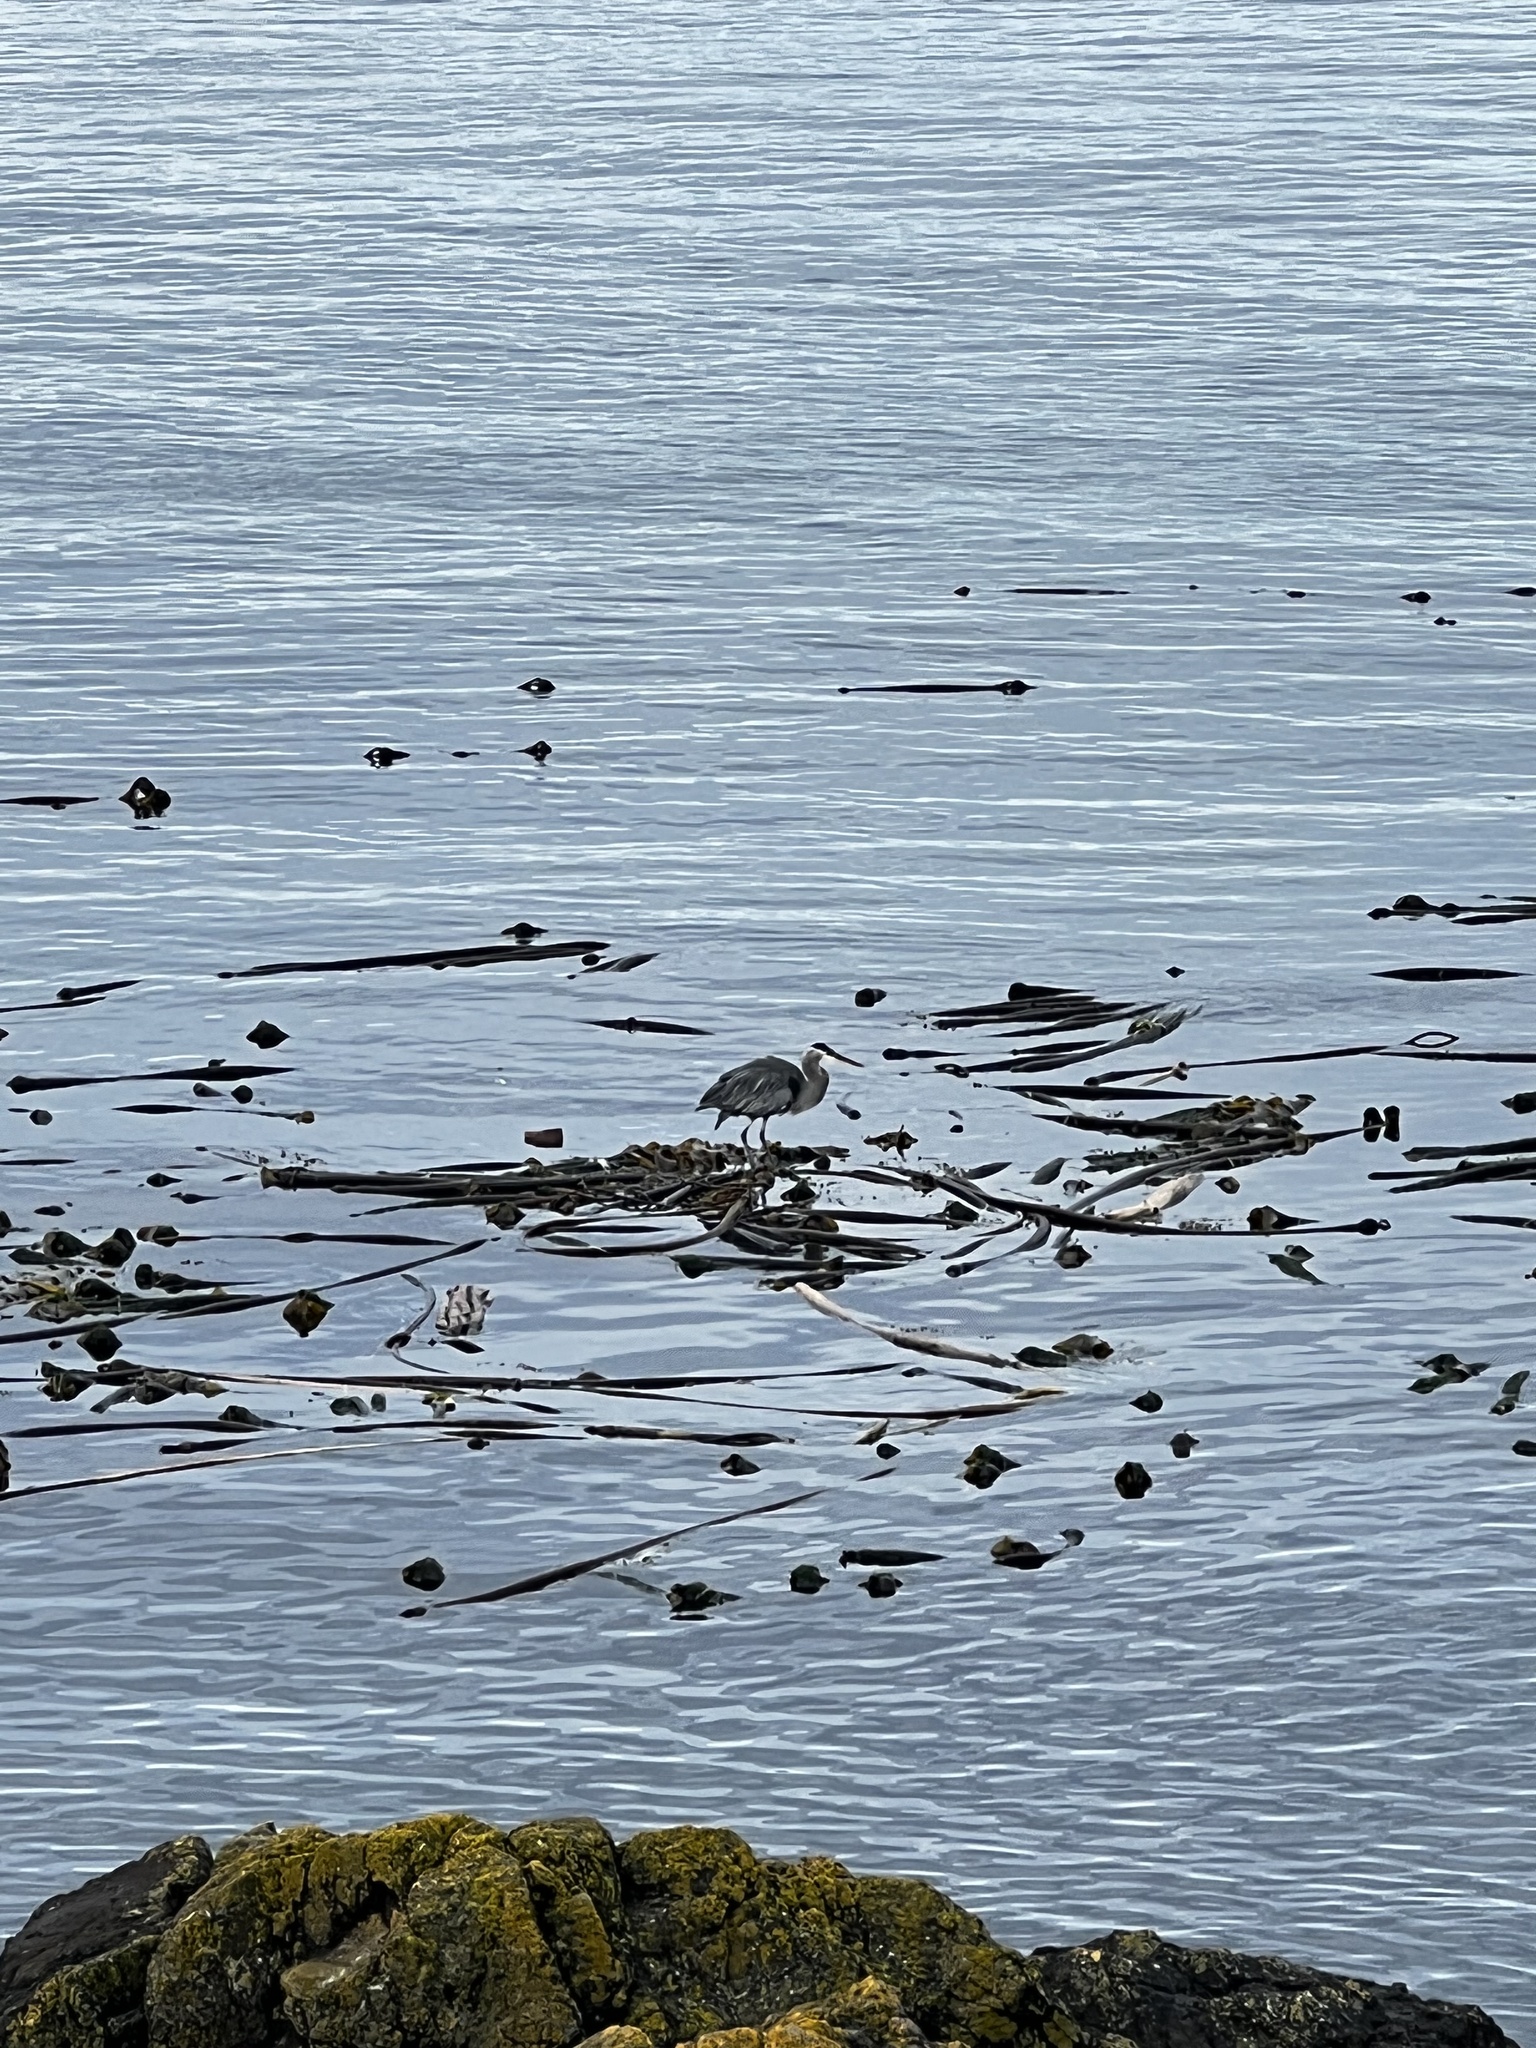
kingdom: Animalia
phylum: Chordata
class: Aves
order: Pelecaniformes
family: Ardeidae
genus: Ardea
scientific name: Ardea herodias
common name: Great blue heron
